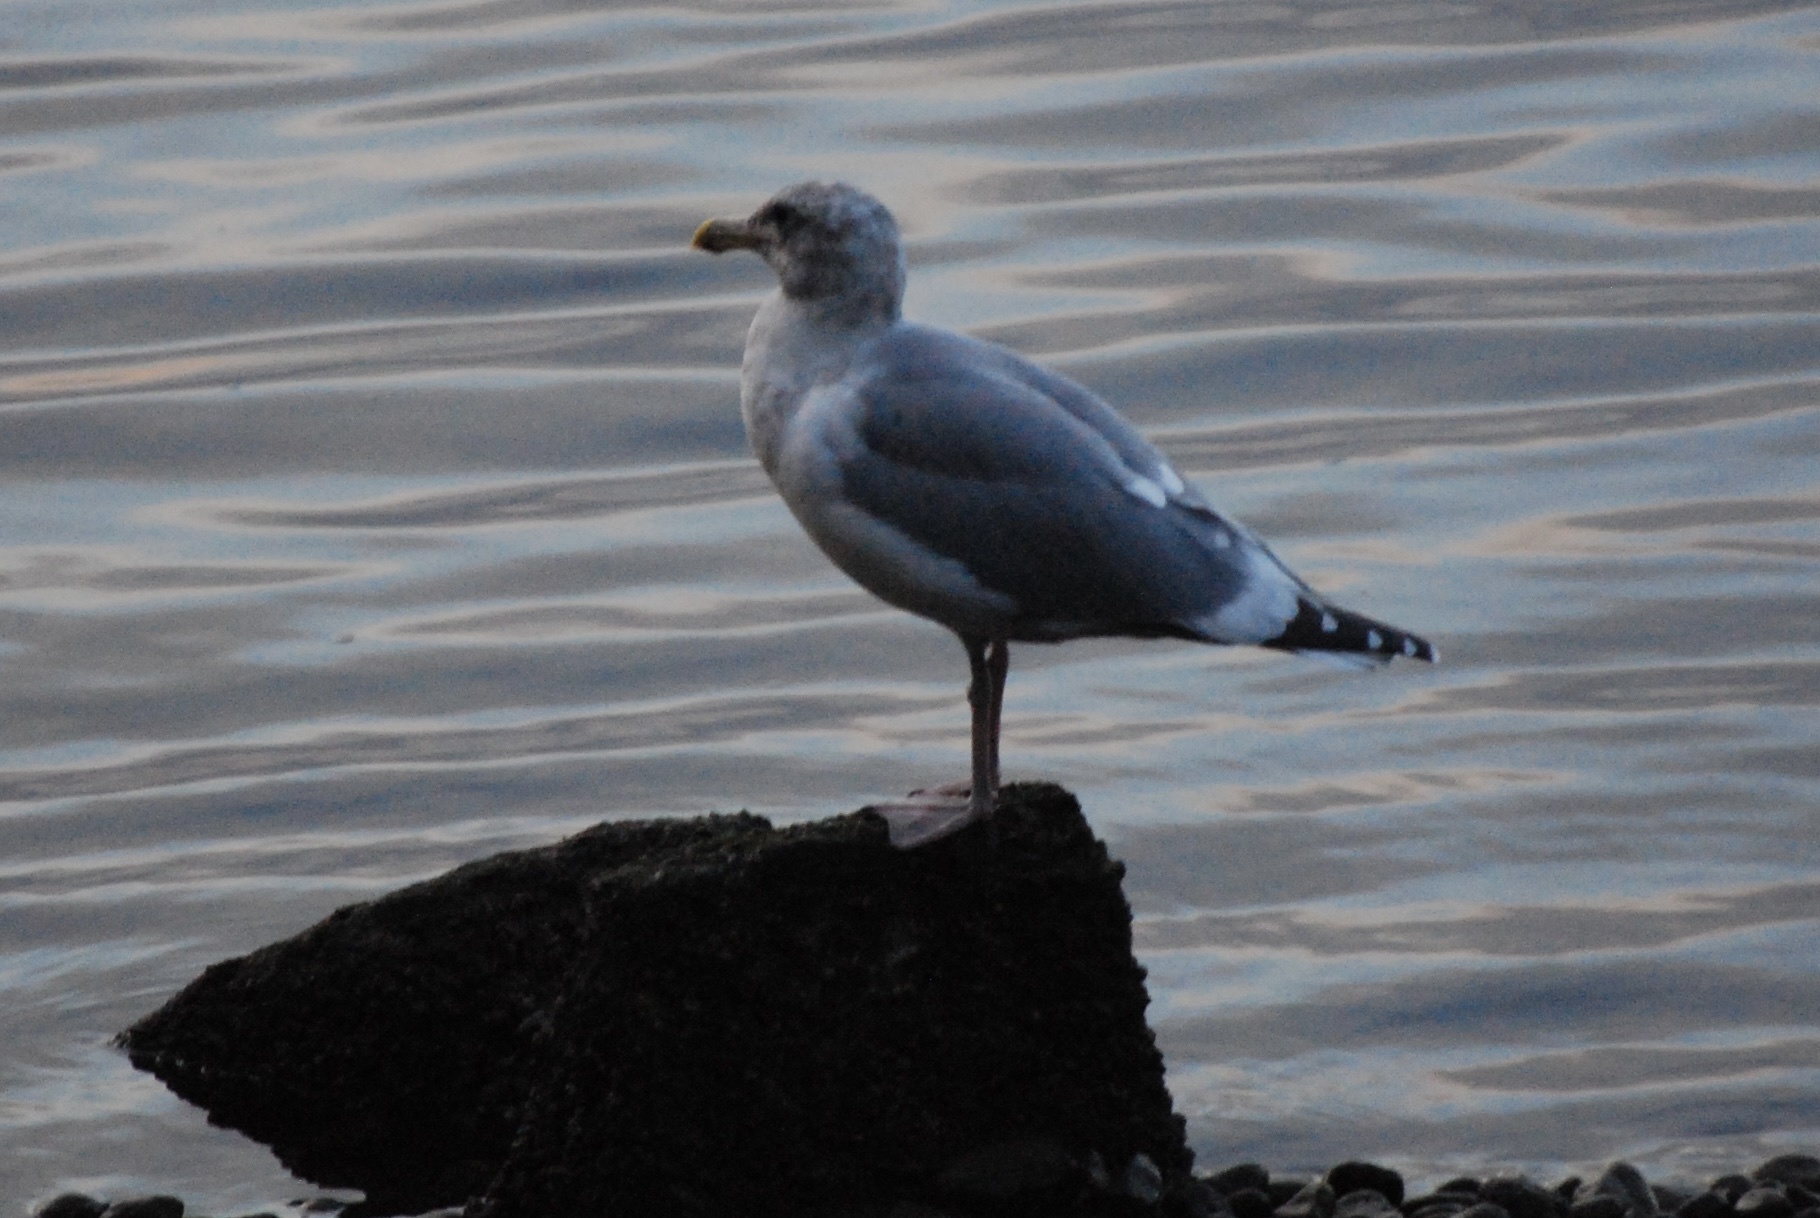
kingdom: Animalia
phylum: Chordata
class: Aves
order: Charadriiformes
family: Laridae
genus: Larus
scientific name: Larus
